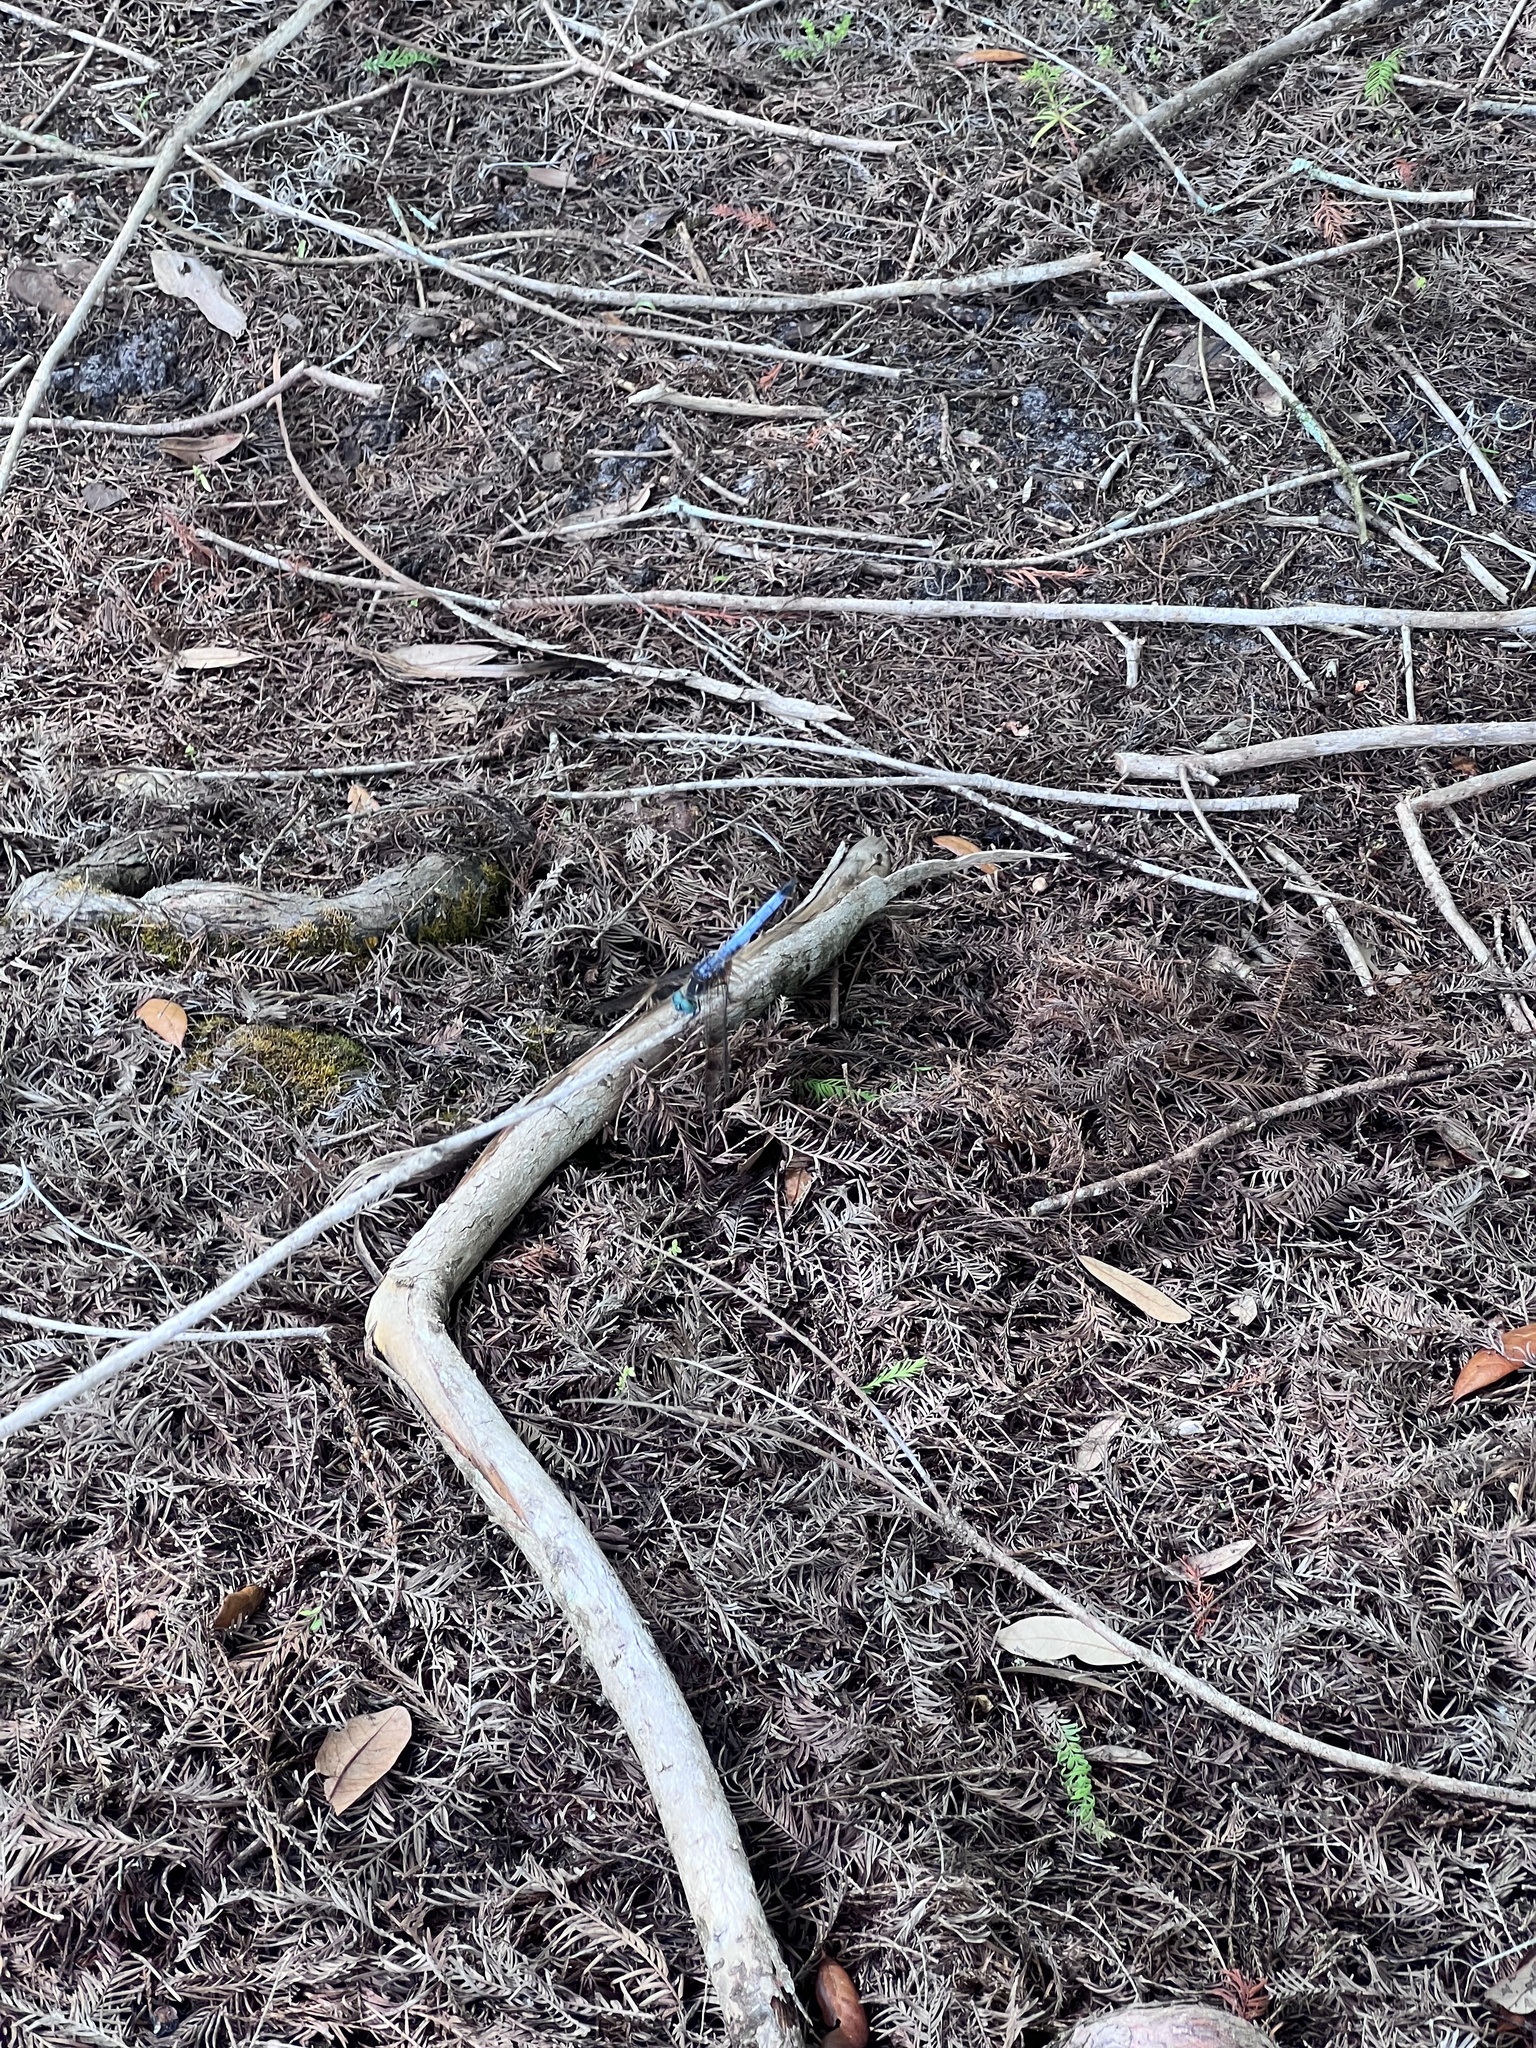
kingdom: Animalia
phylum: Arthropoda
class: Insecta
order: Odonata
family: Libellulidae
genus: Pachydiplax
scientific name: Pachydiplax longipennis
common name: Blue dasher
